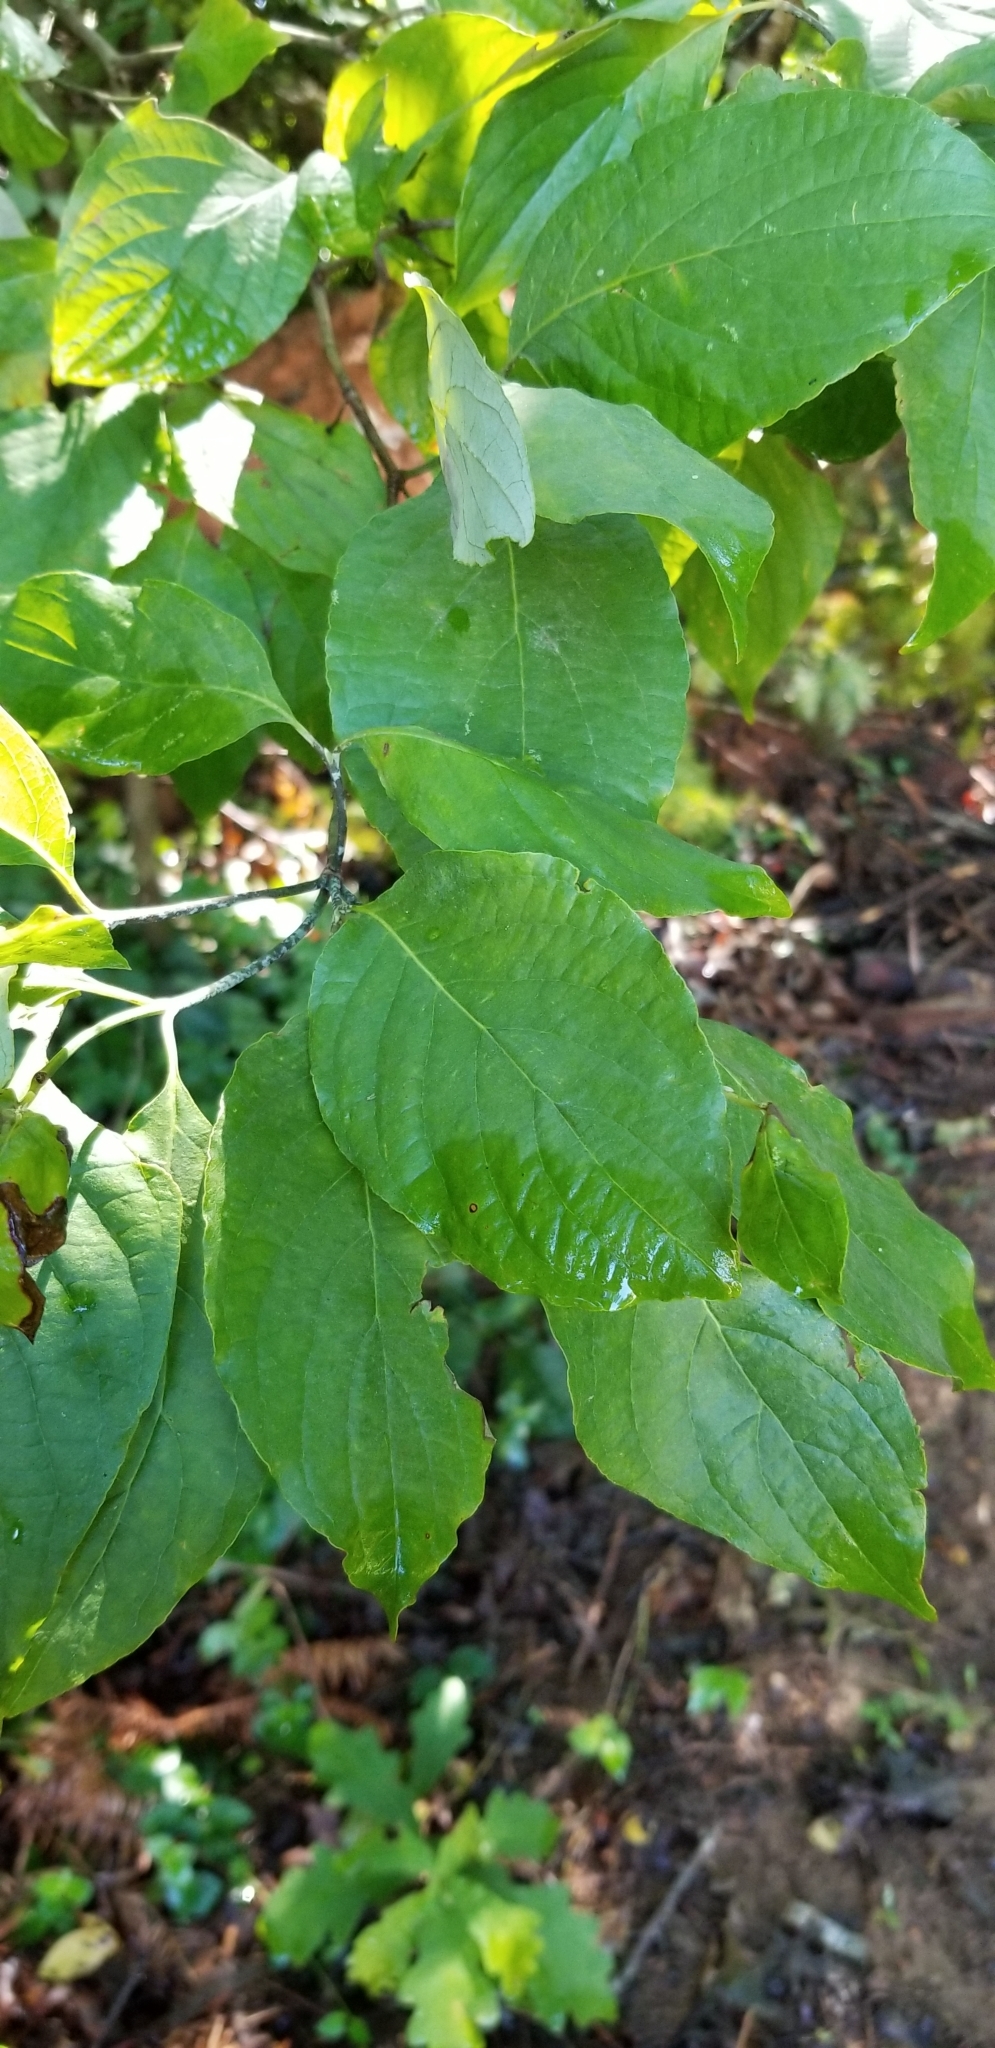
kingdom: Plantae
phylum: Tracheophyta
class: Magnoliopsida
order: Cornales
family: Cornaceae
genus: Cornus
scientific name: Cornus florida
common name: Flowering dogwood
